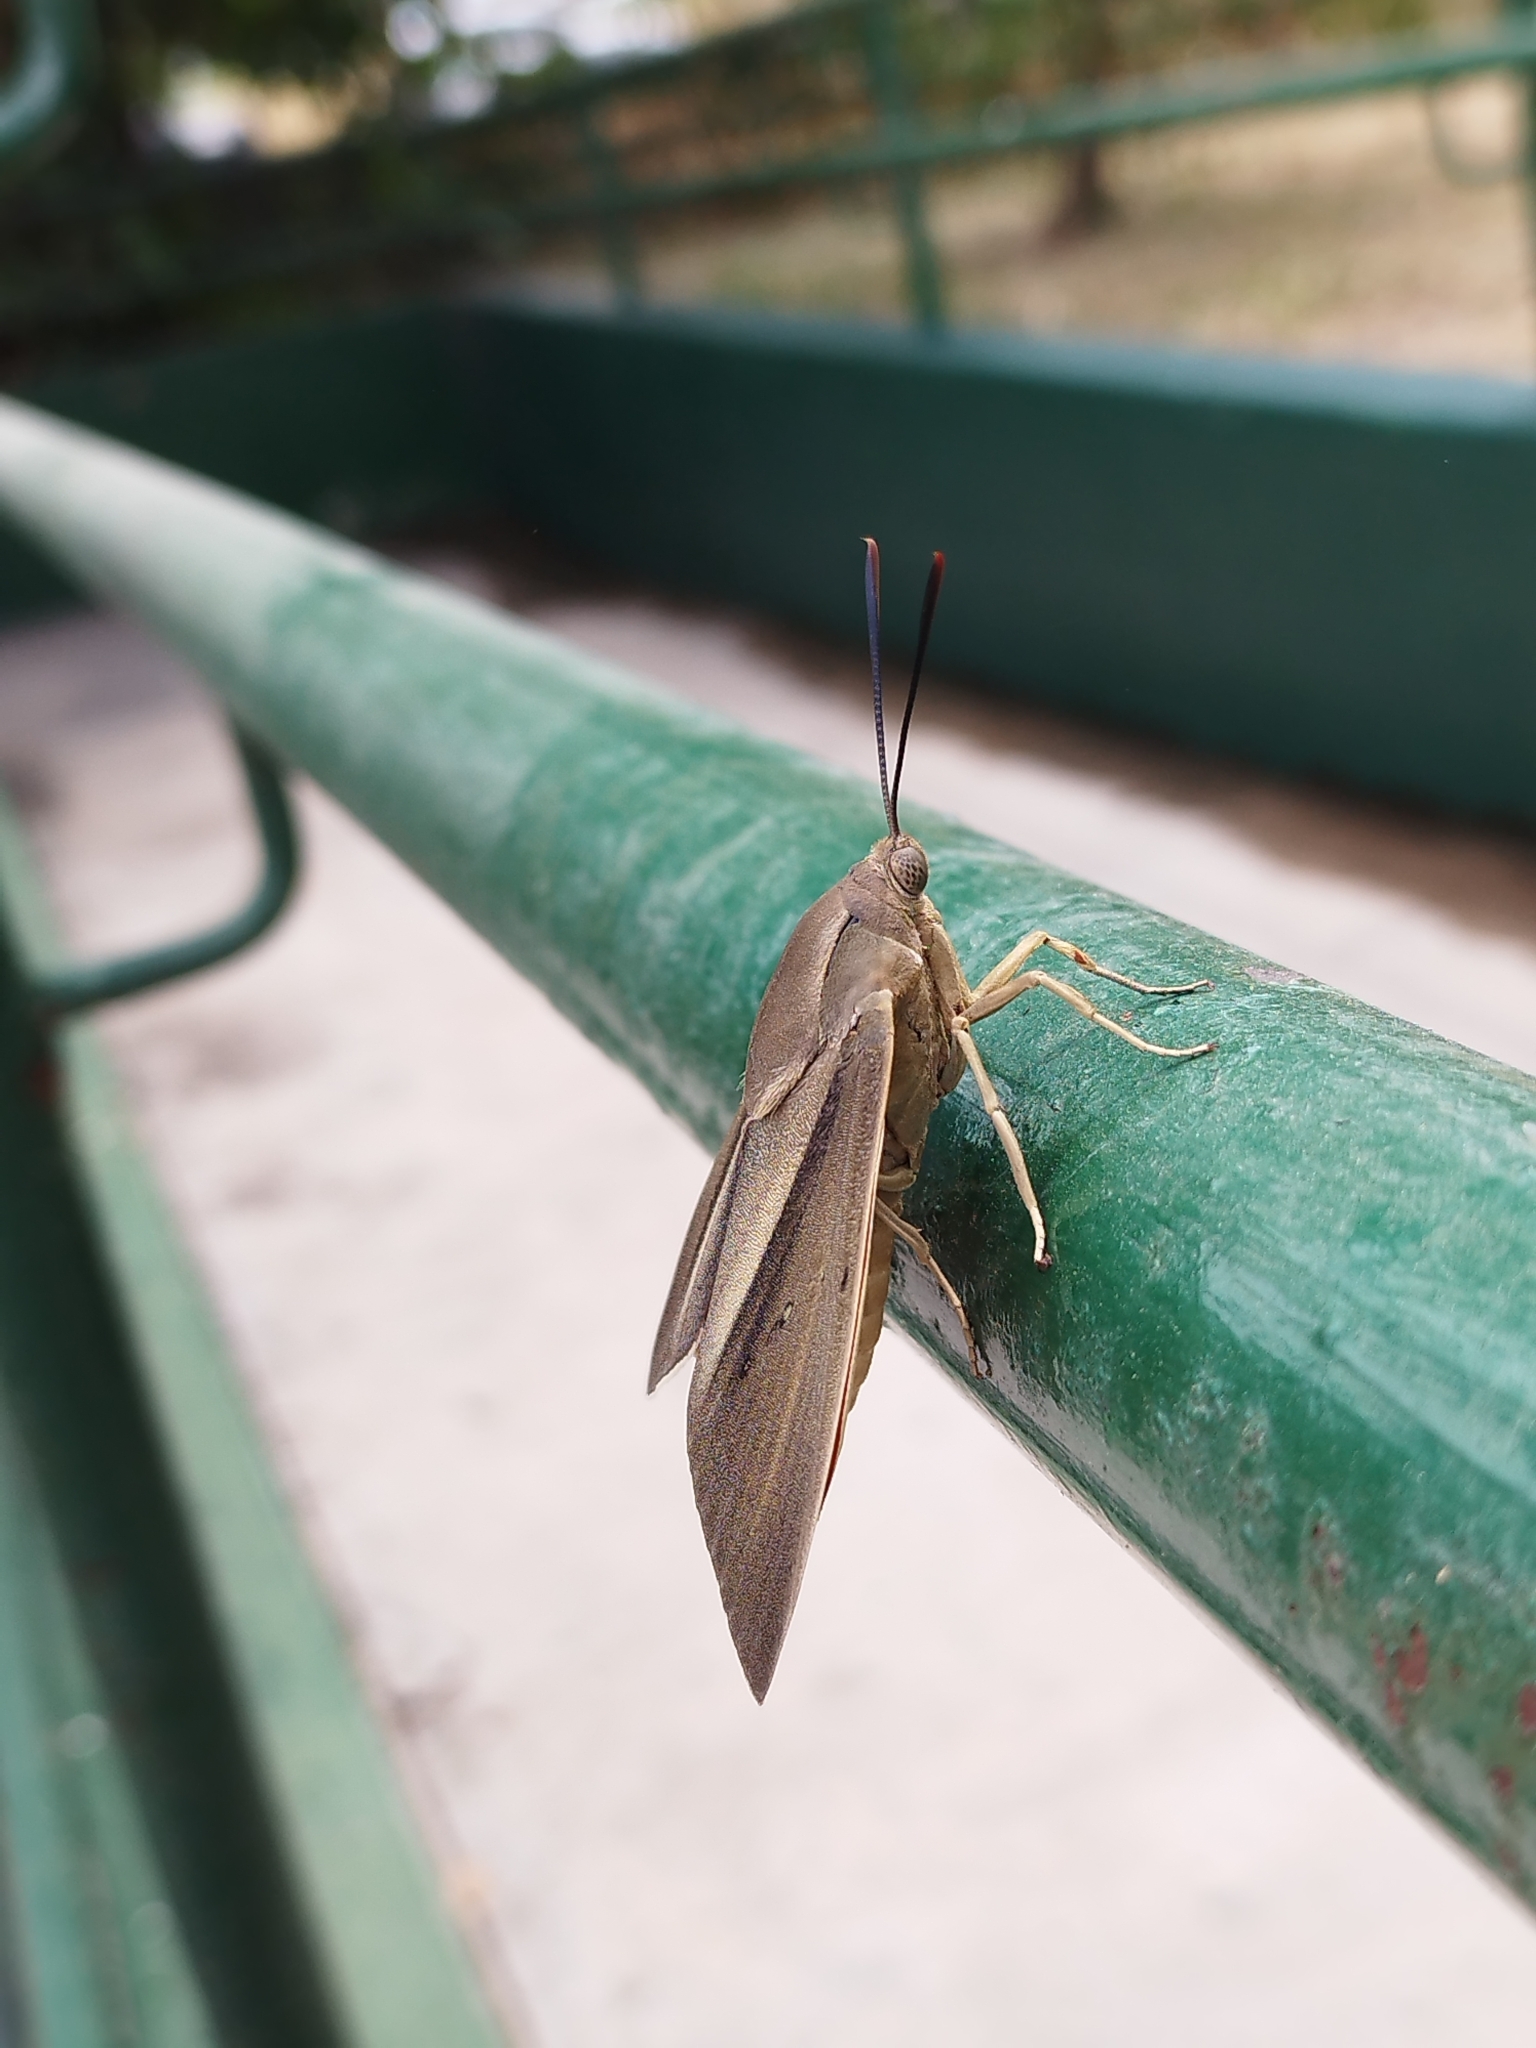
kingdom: Animalia
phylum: Arthropoda
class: Insecta
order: Lepidoptera
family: Castniidae
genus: Paysandisia
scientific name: Paysandisia archon
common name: Palm moth
